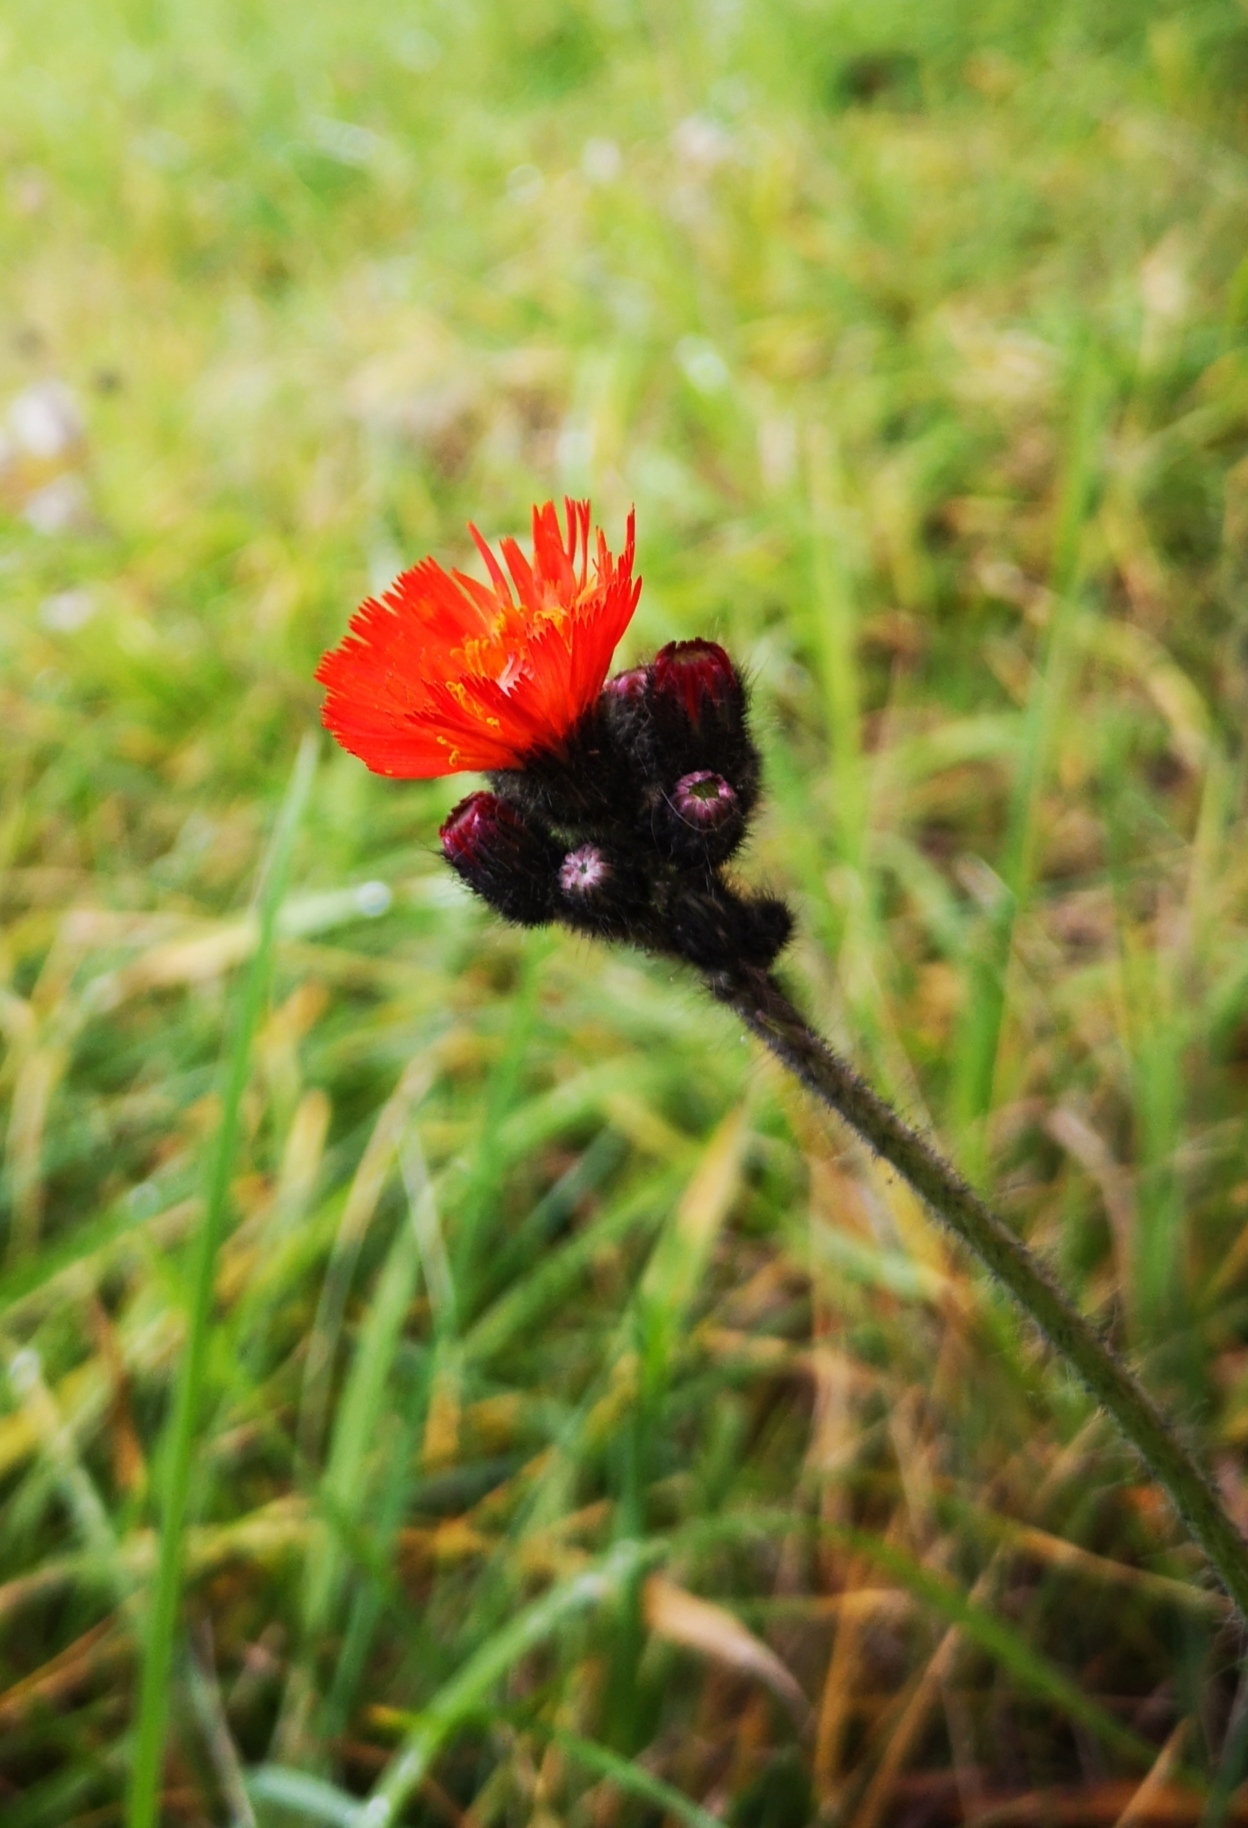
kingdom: Plantae
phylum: Tracheophyta
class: Magnoliopsida
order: Asterales
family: Asteraceae
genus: Pilosella
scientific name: Pilosella aurantiaca
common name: Fox-and-cubs
